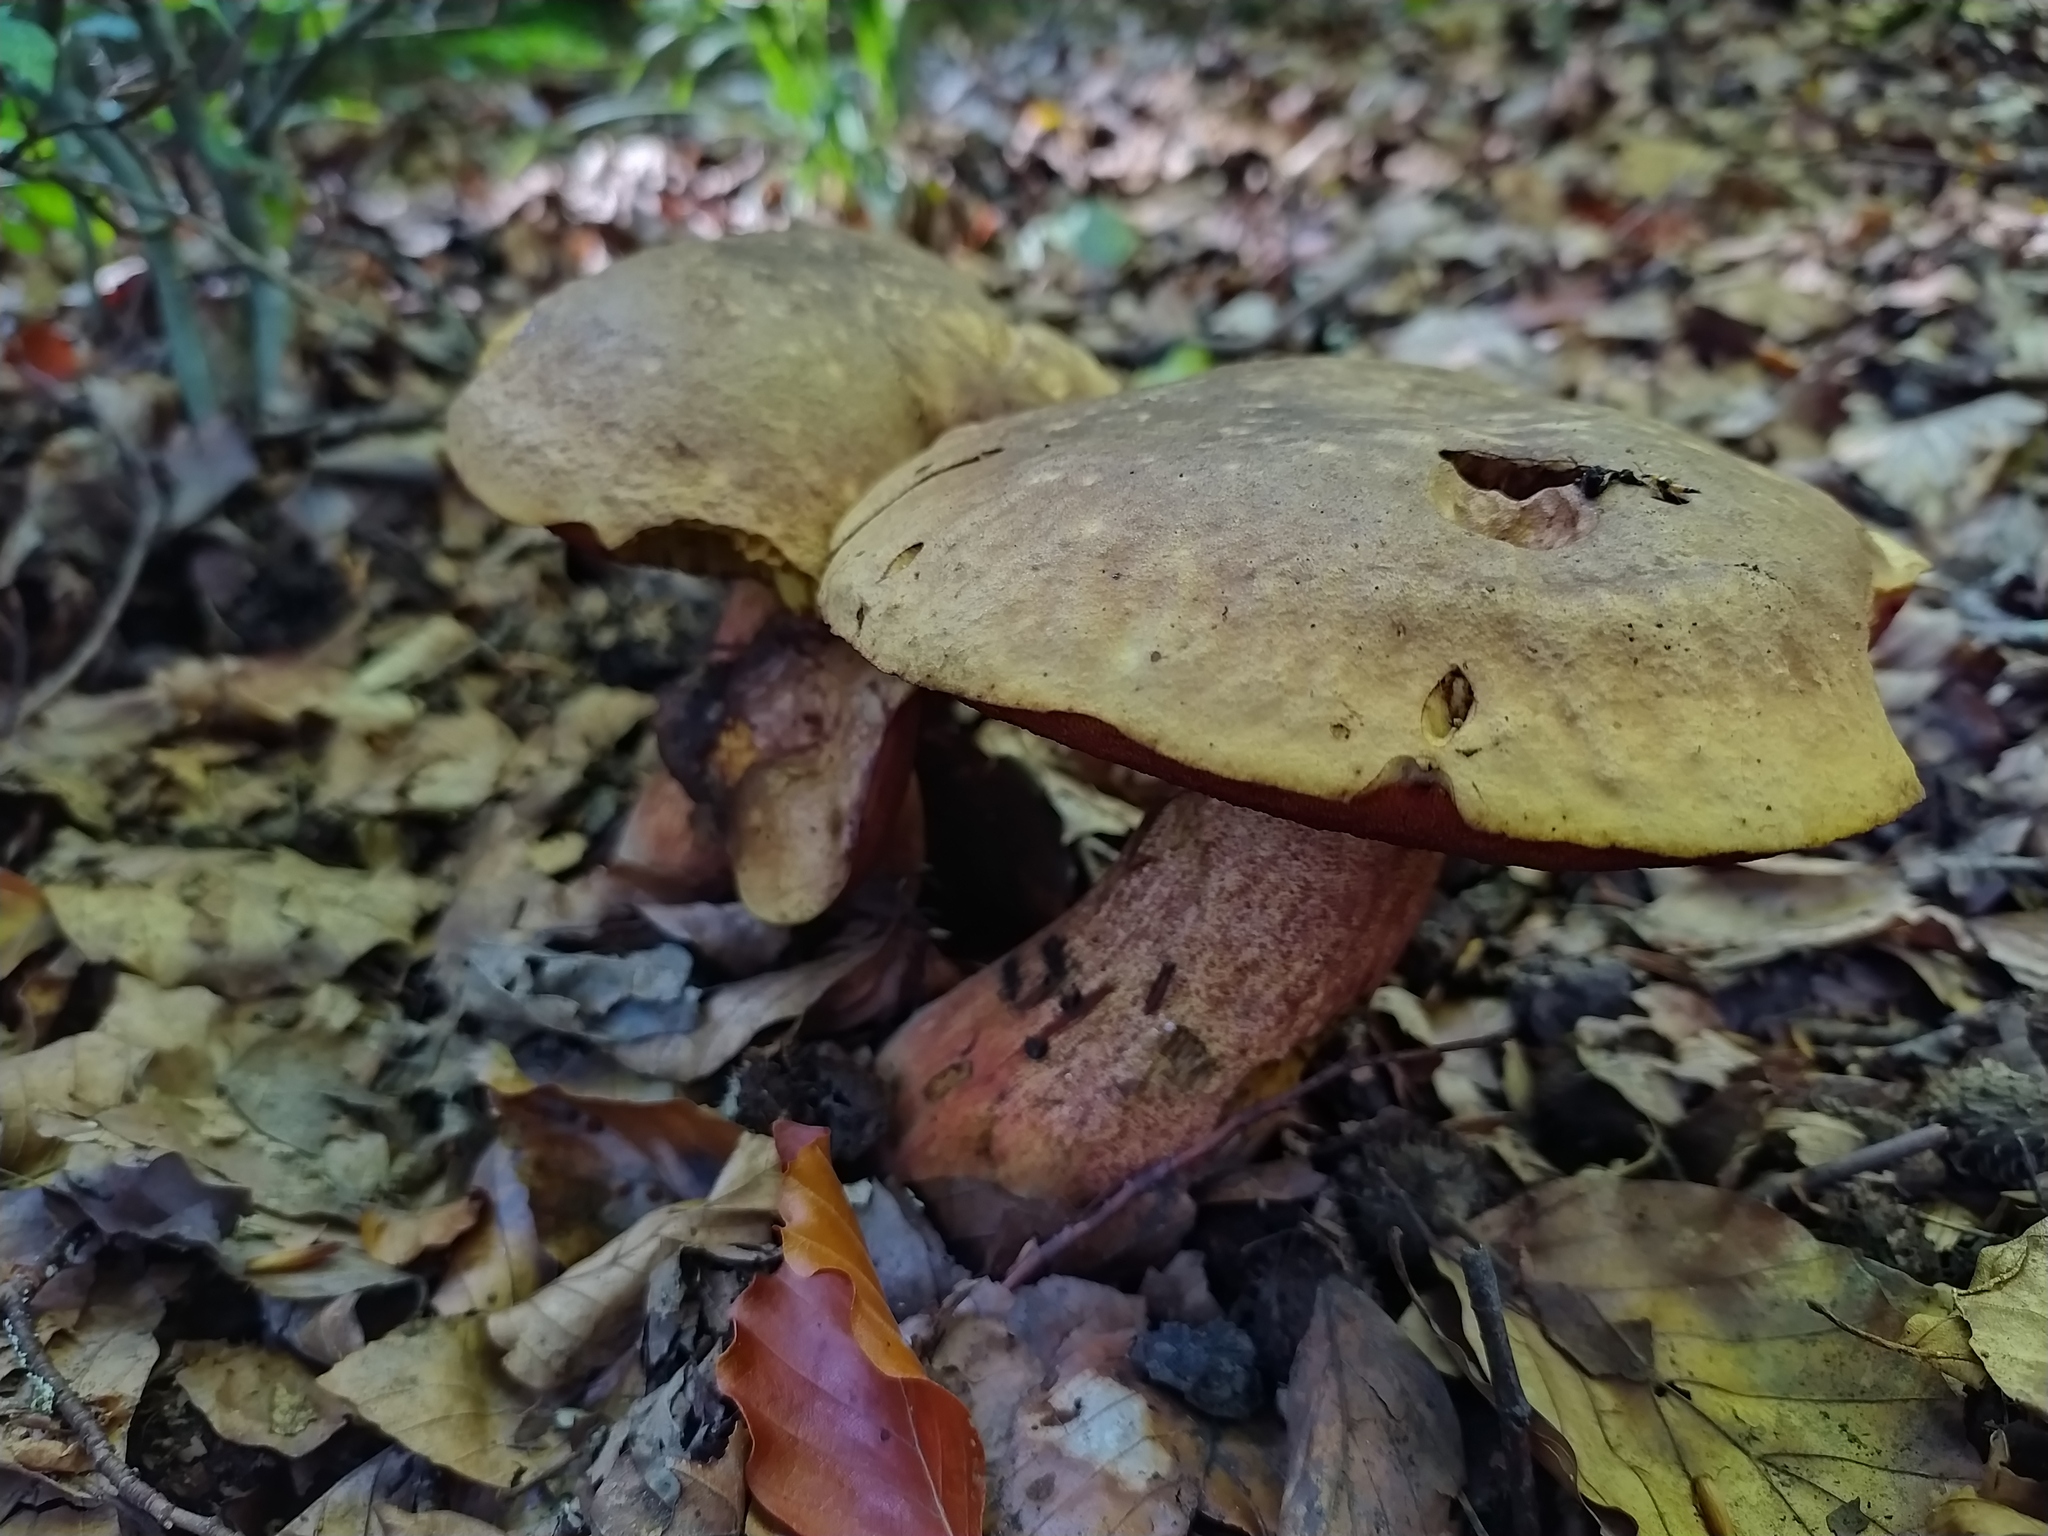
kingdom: Fungi
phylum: Basidiomycota
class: Agaricomycetes
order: Boletales
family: Boletaceae
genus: Neoboletus
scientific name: Neoboletus erythropus
